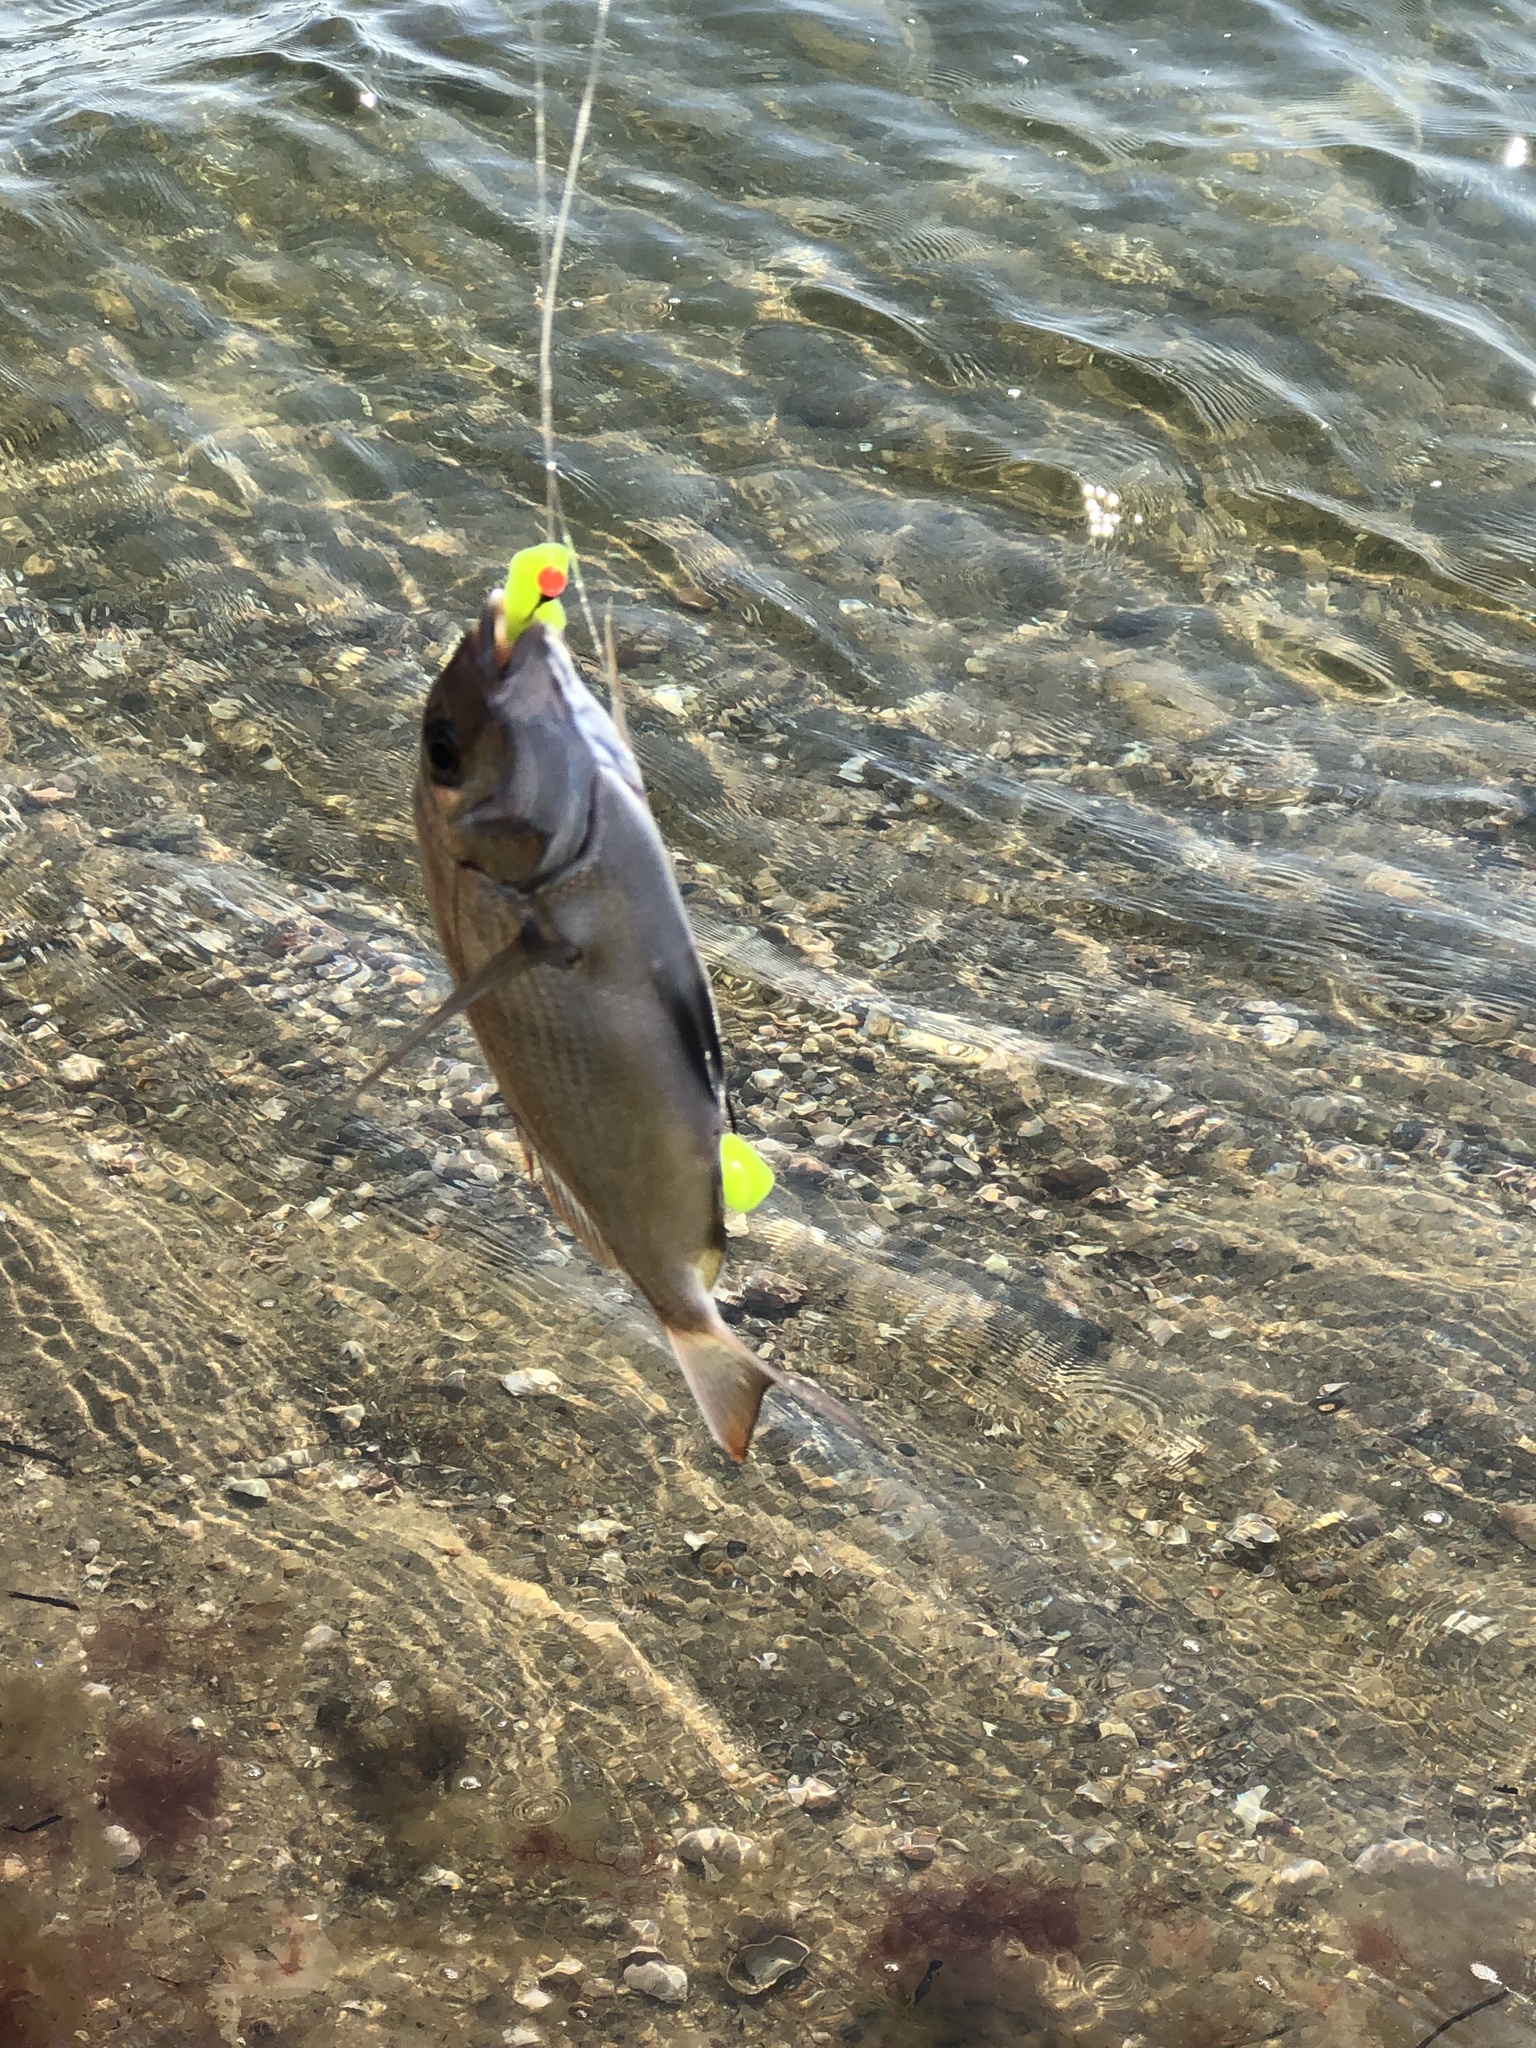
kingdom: Animalia
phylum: Chordata
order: Perciformes
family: Sparidae
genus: Stenotomus
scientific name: Stenotomus chrysops
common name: Scup
